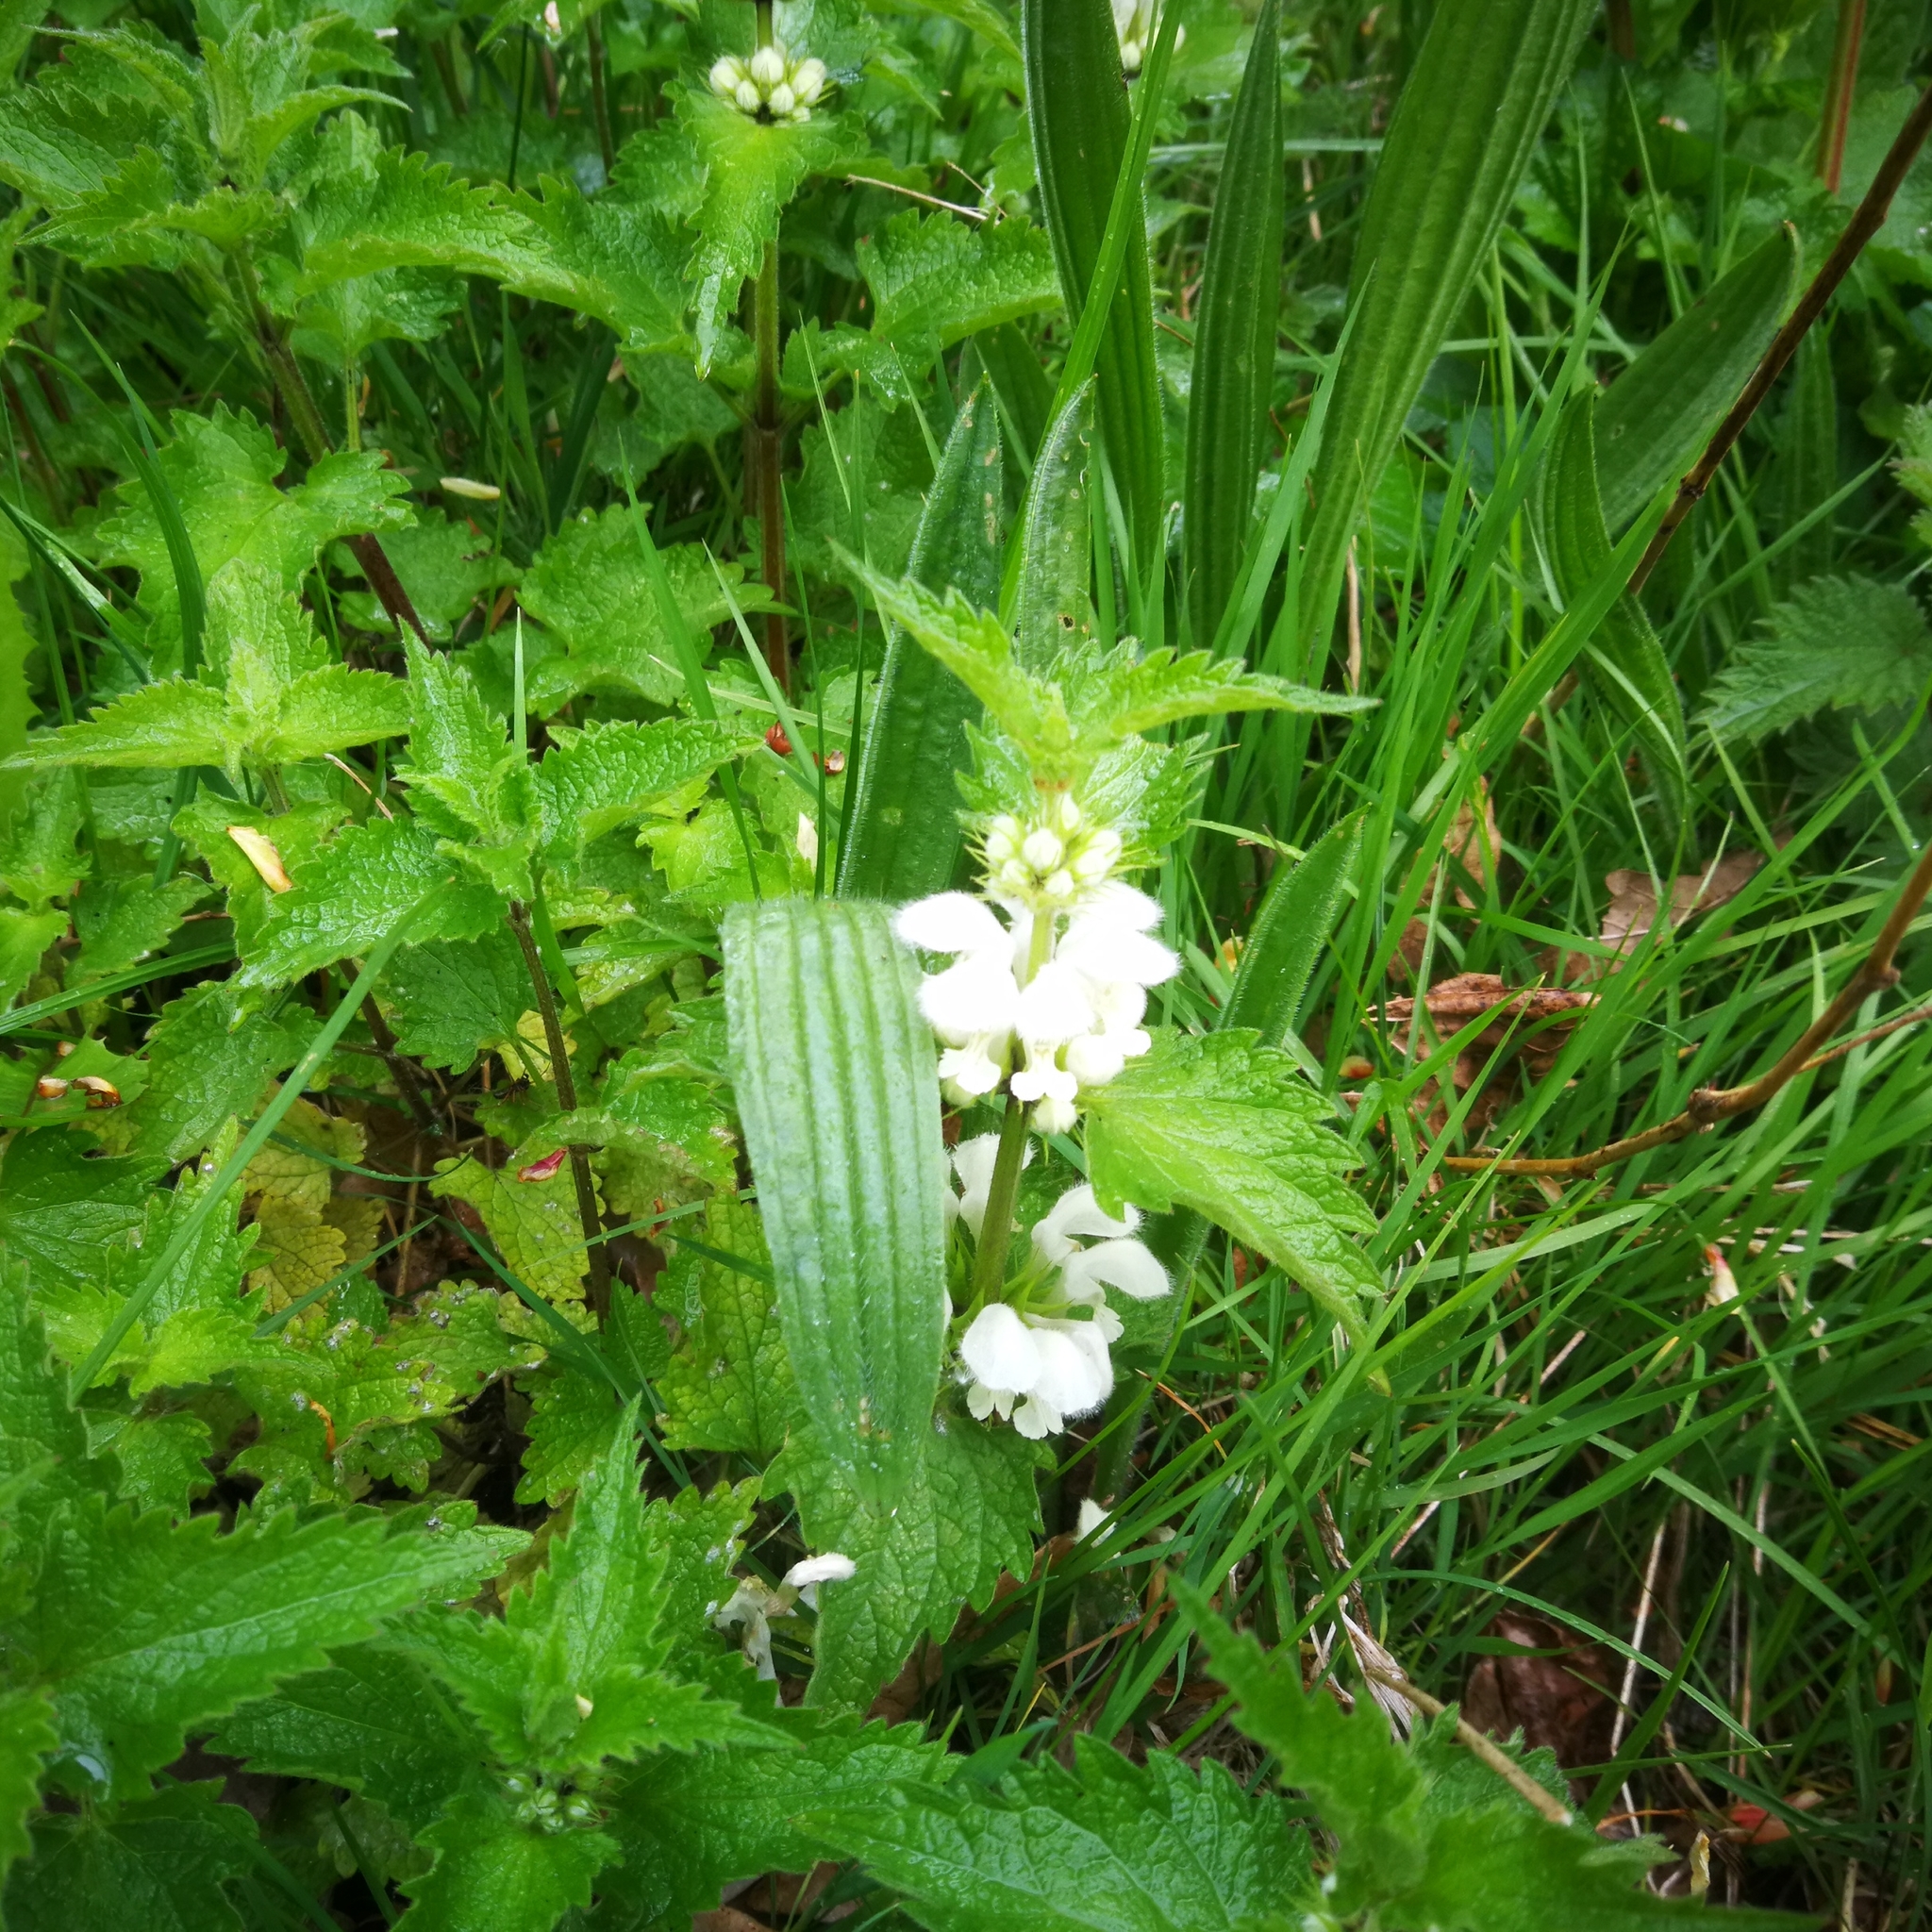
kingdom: Plantae
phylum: Tracheophyta
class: Magnoliopsida
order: Lamiales
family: Lamiaceae
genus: Lamium
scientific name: Lamium album
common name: White dead-nettle
